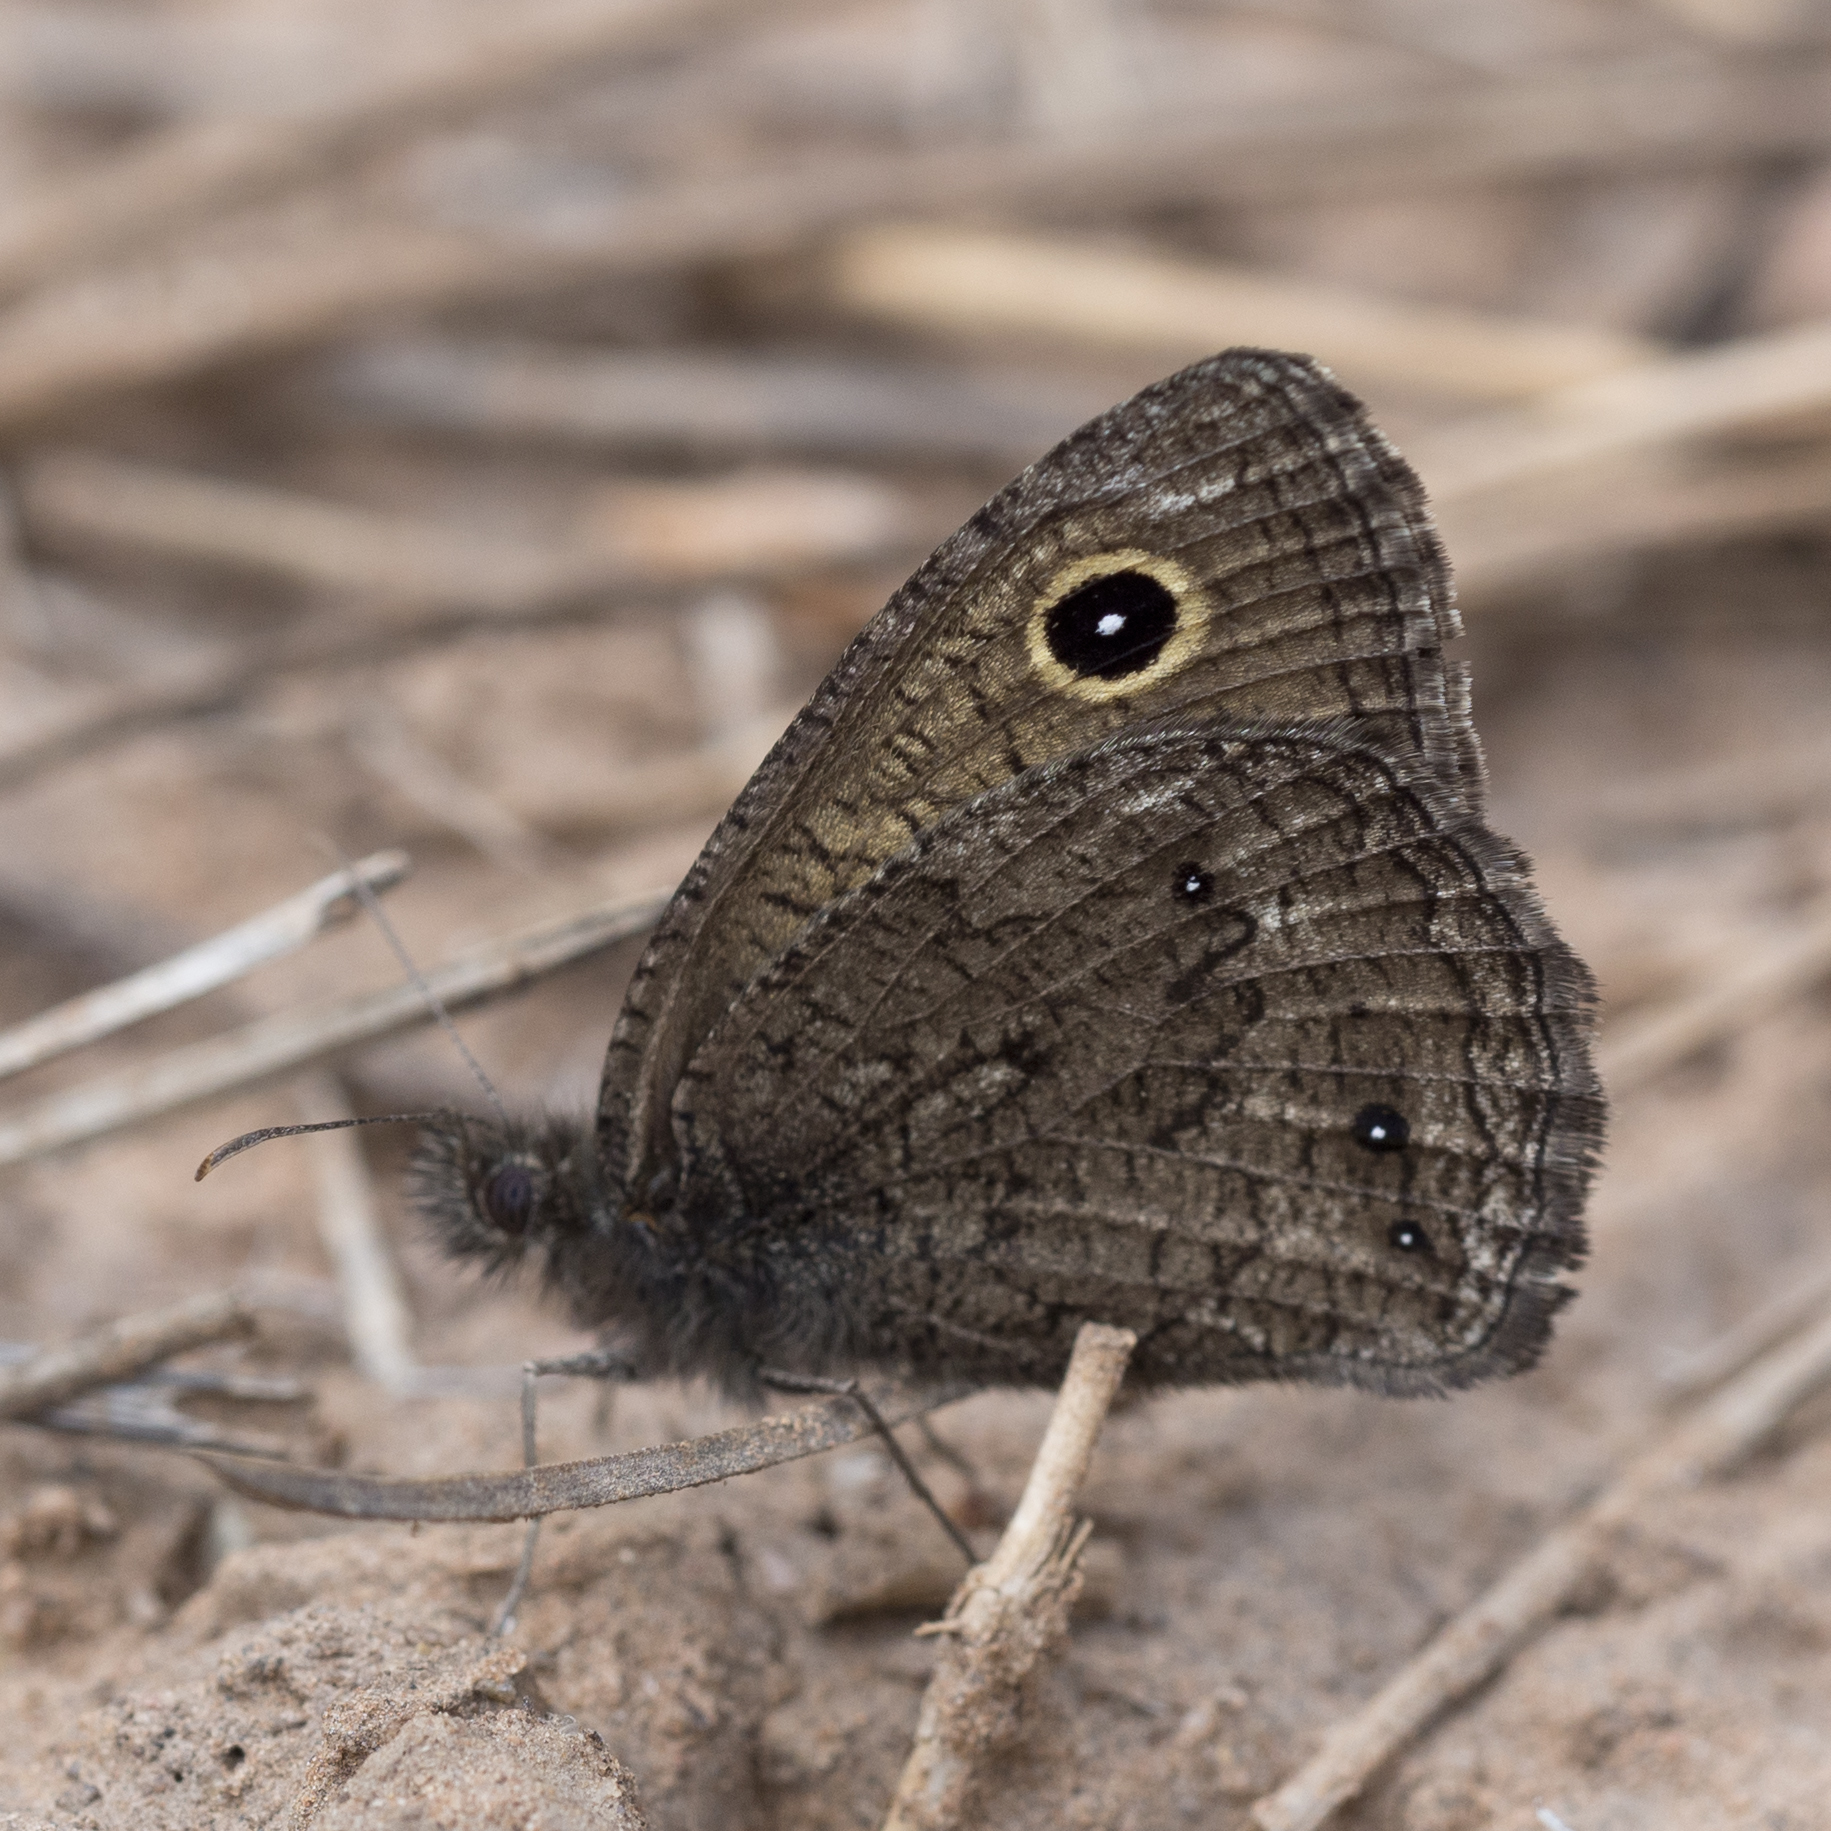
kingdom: Animalia
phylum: Arthropoda
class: Insecta
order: Lepidoptera
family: Nymphalidae
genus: Cercyonis
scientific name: Cercyonis oetus
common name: Small wood-nymph
